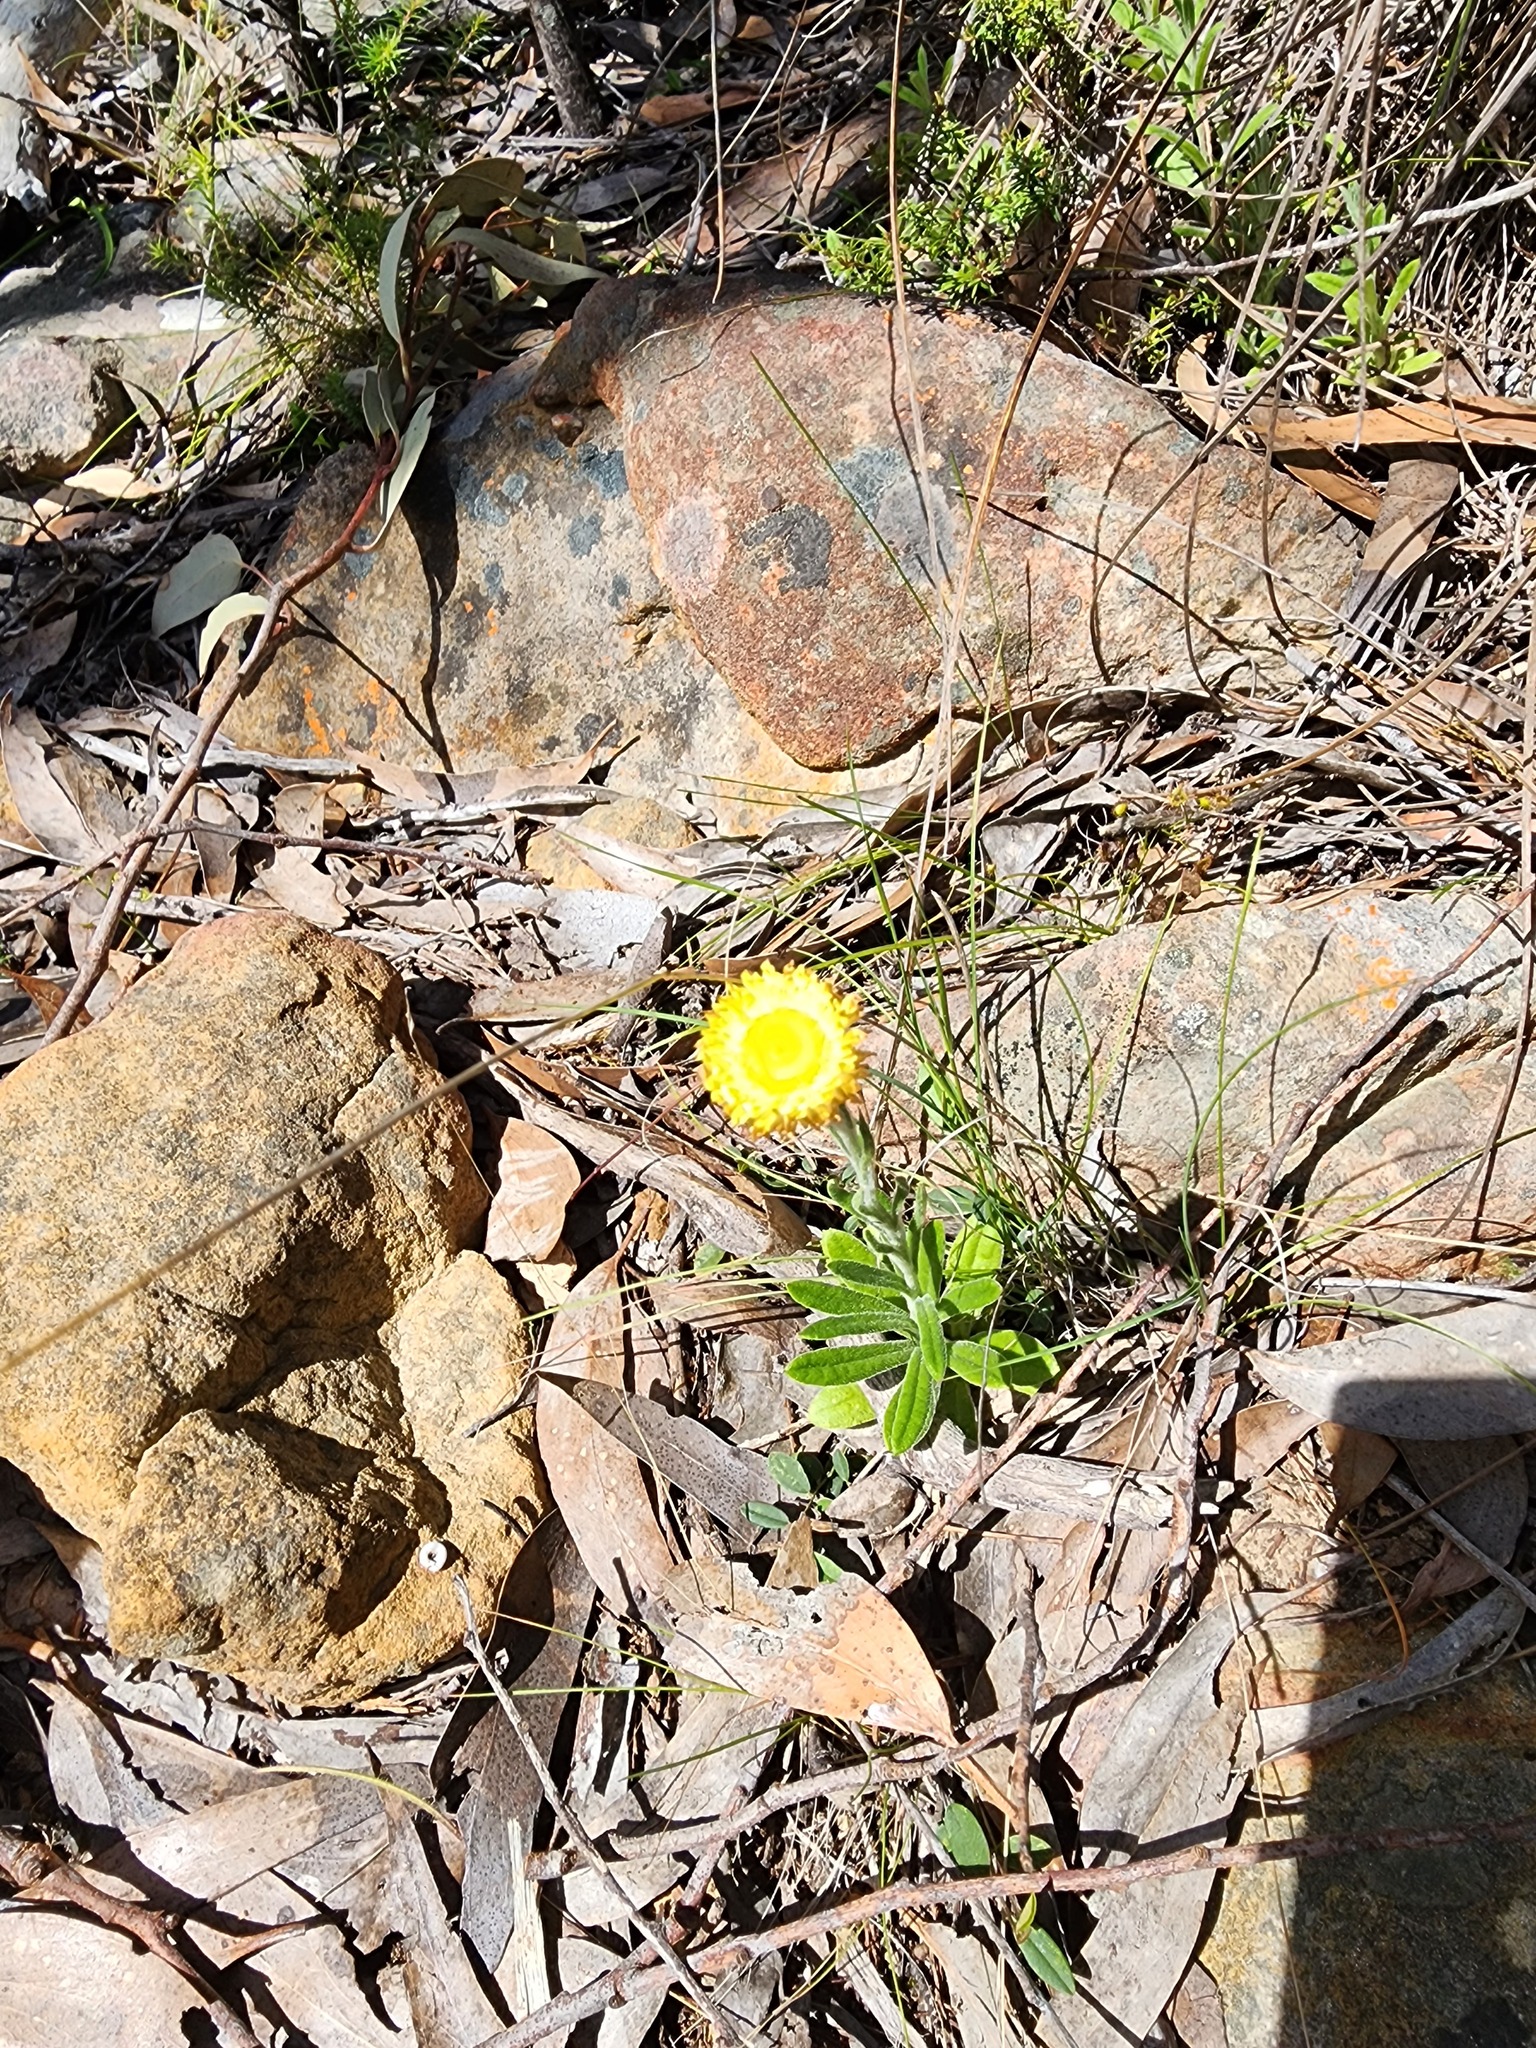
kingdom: Plantae
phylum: Tracheophyta
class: Magnoliopsida
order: Asterales
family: Asteraceae
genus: Coronidium
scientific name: Coronidium scorpioides
